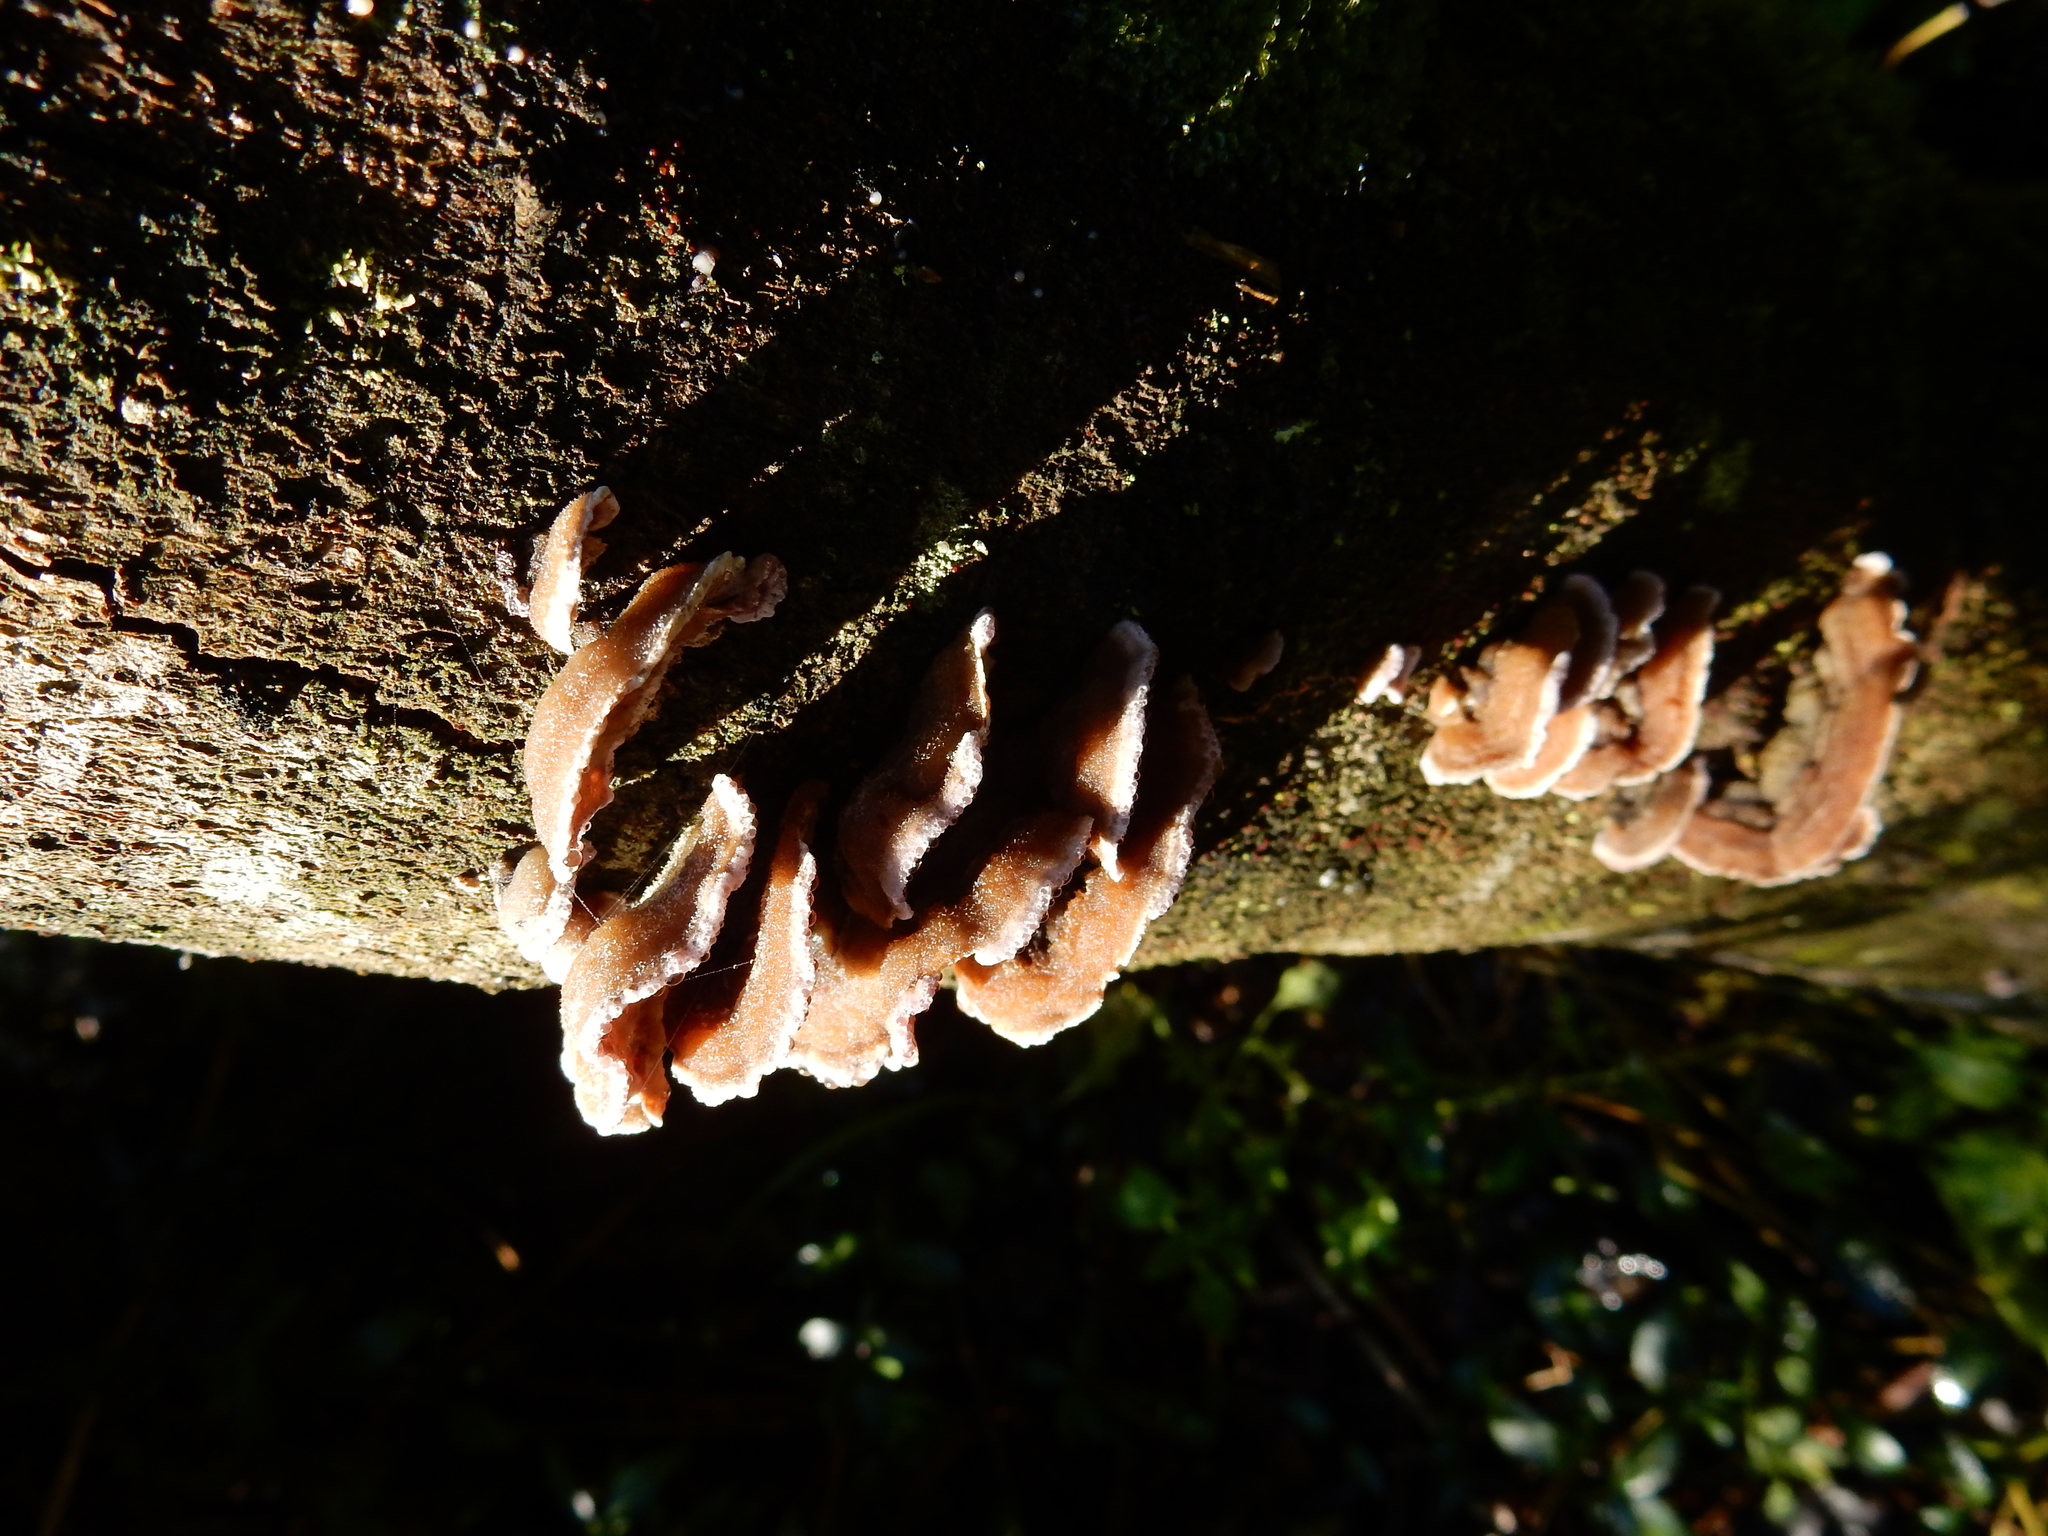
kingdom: Fungi
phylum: Basidiomycota
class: Agaricomycetes
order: Agaricales
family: Cyphellaceae
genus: Chondrostereum
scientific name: Chondrostereum purpureum
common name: Silver leaf disease
